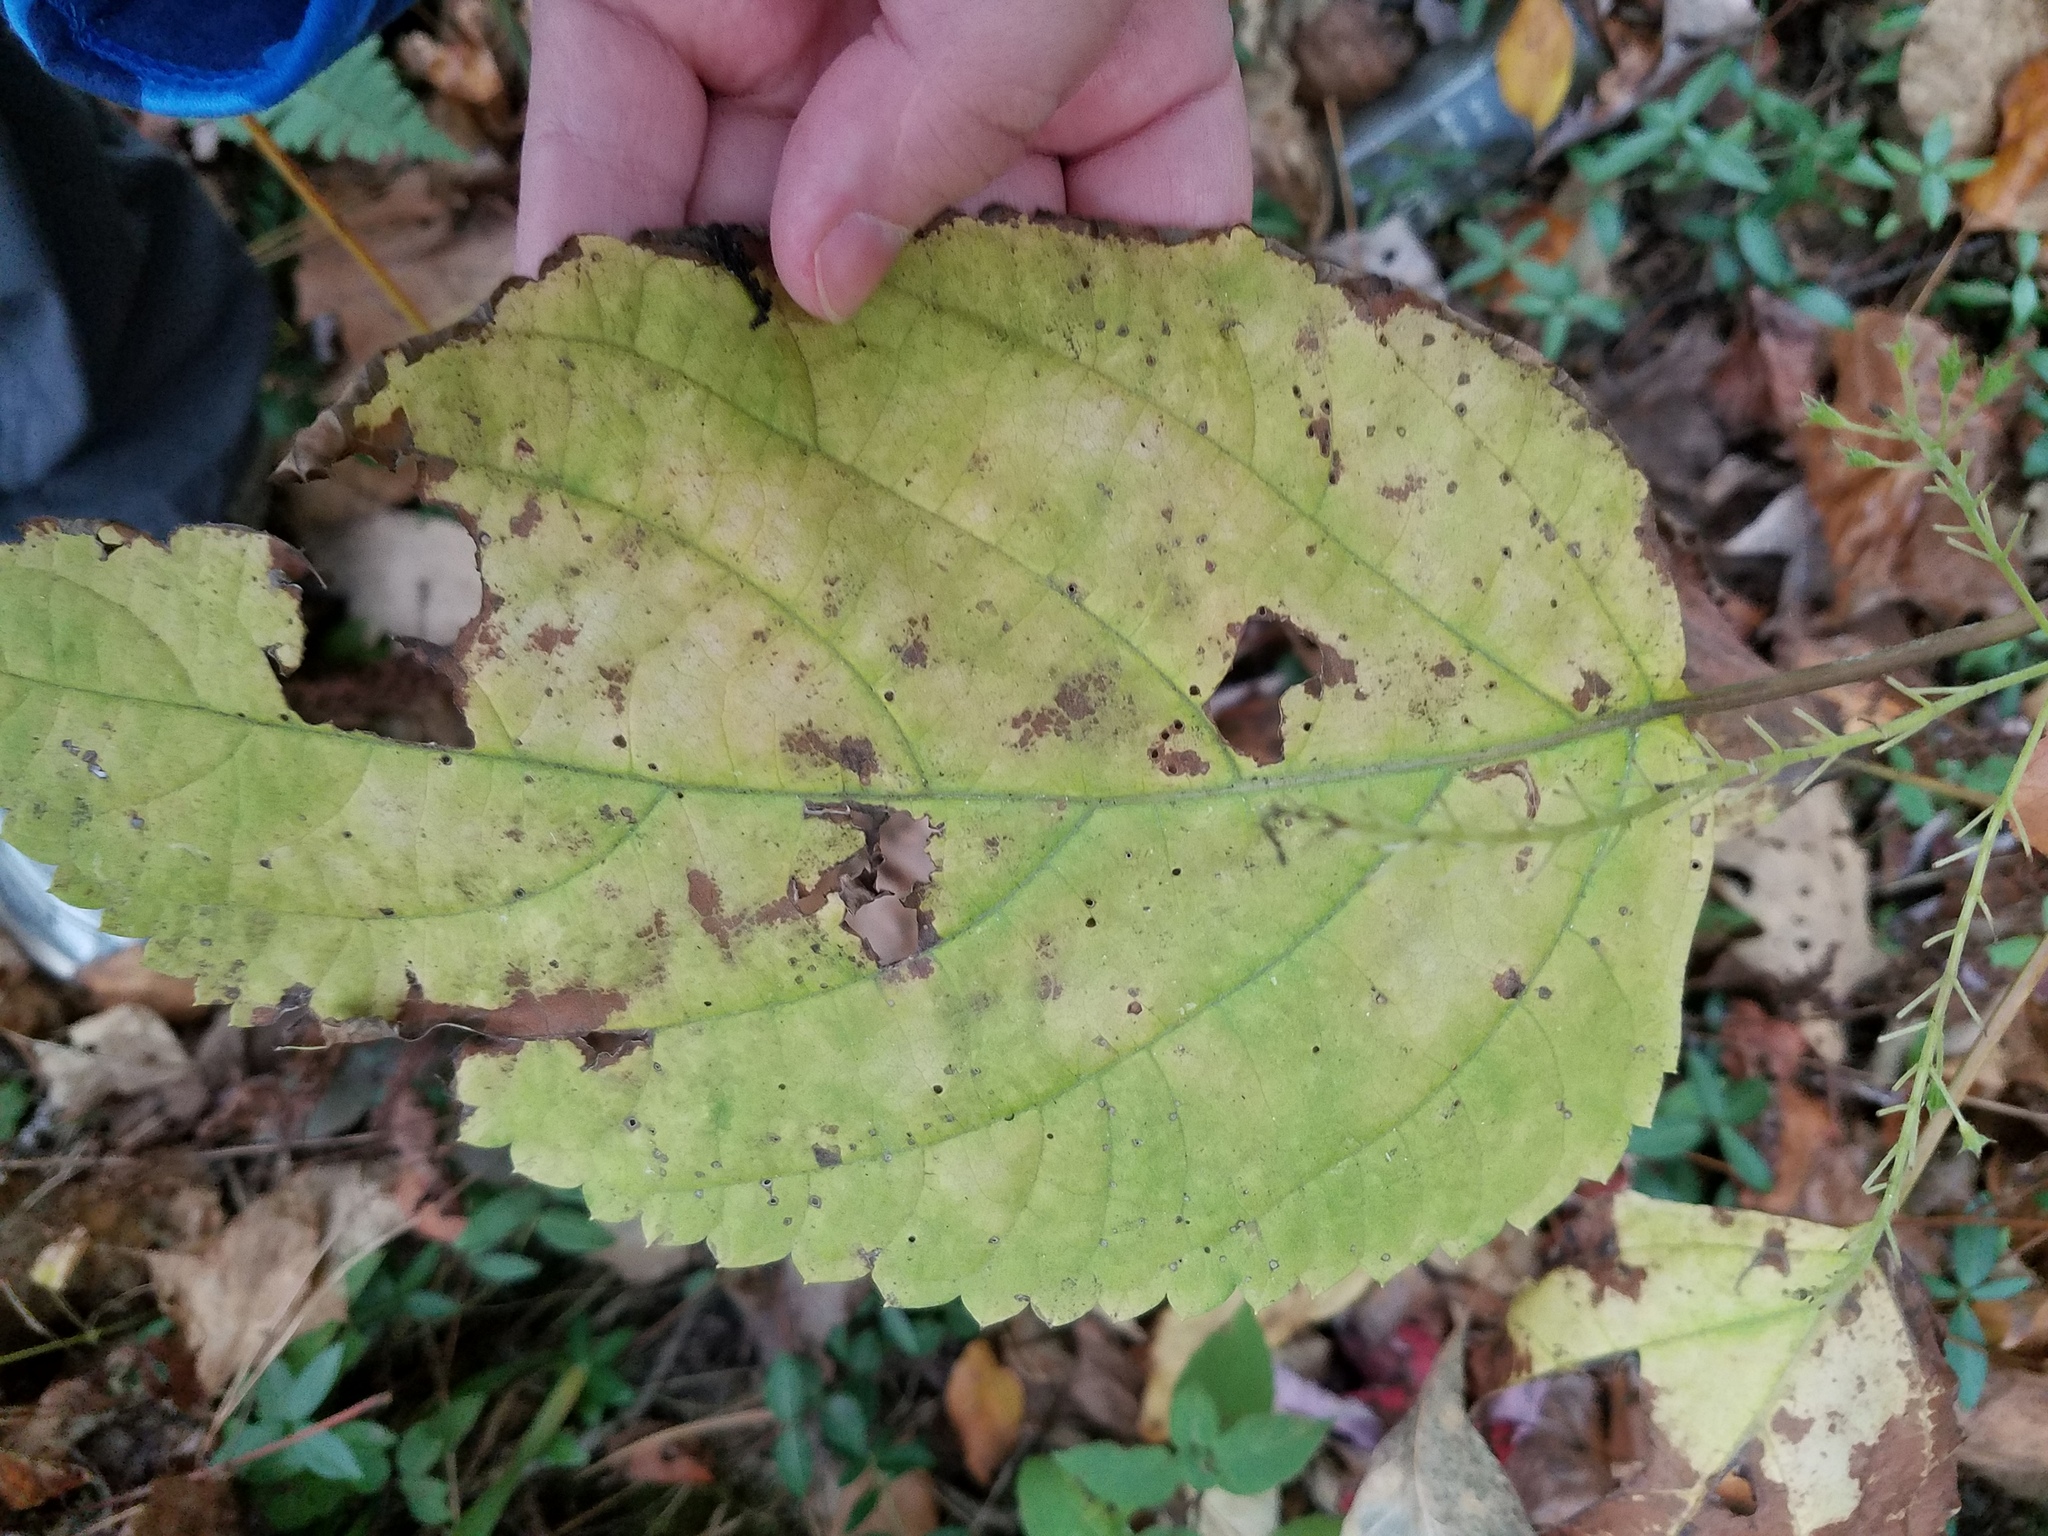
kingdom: Plantae
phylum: Tracheophyta
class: Magnoliopsida
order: Lamiales
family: Lamiaceae
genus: Collinsonia
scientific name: Collinsonia canadensis
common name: Northern horsebalm
